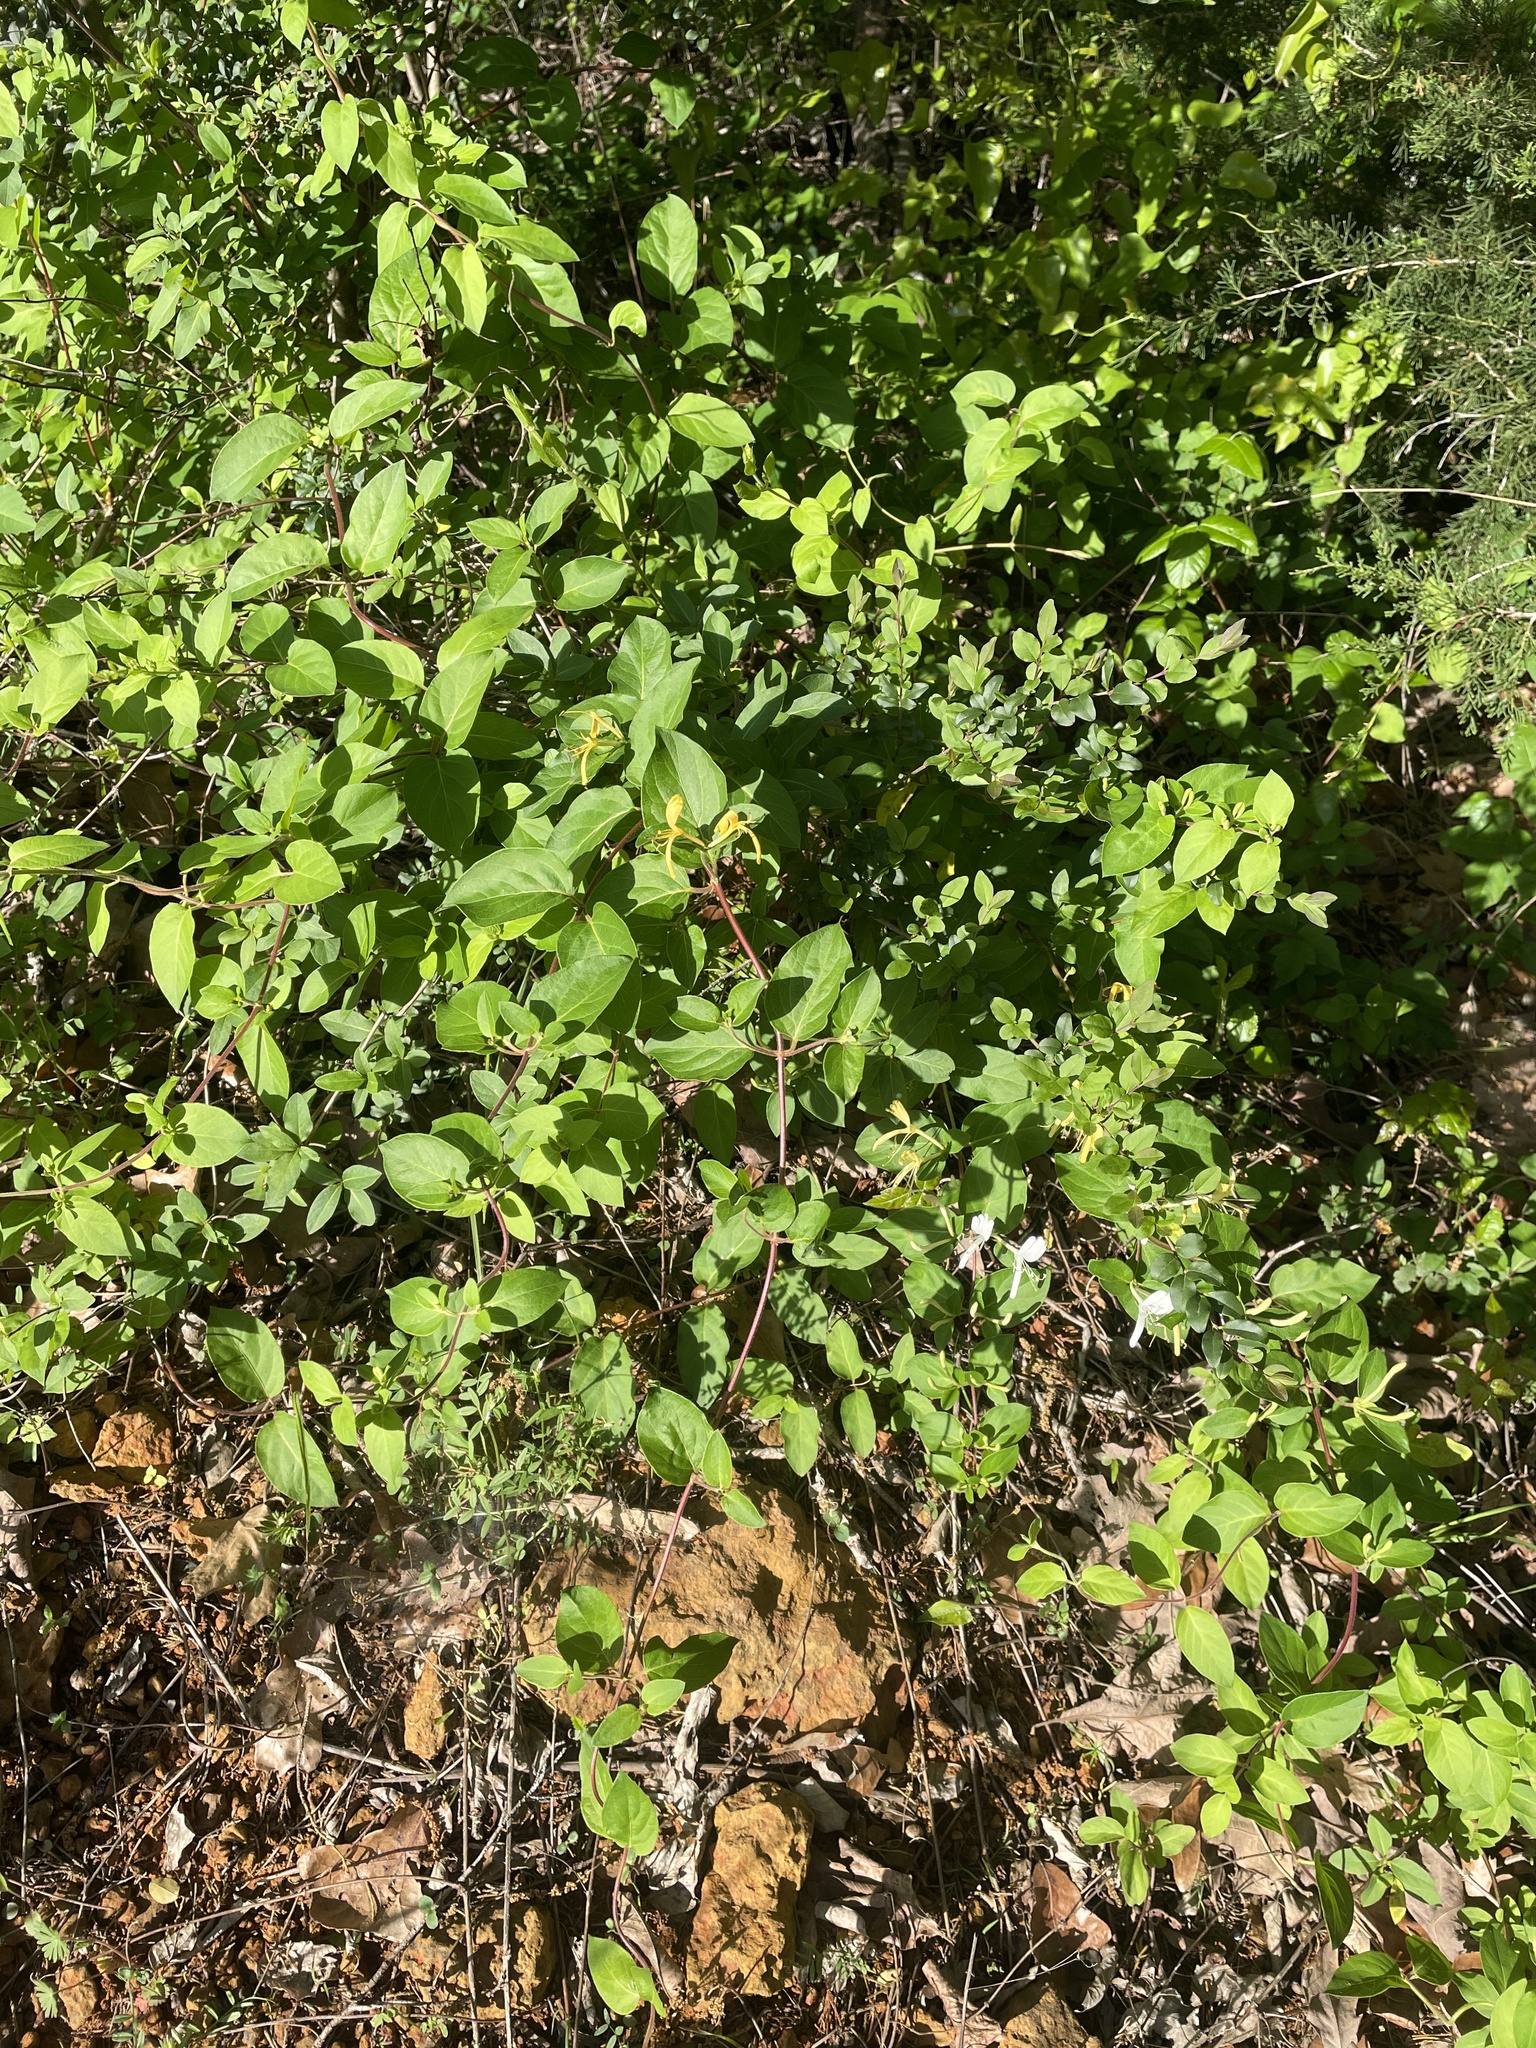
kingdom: Plantae
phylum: Tracheophyta
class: Magnoliopsida
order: Dipsacales
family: Caprifoliaceae
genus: Lonicera
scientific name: Lonicera japonica
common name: Japanese honeysuckle
